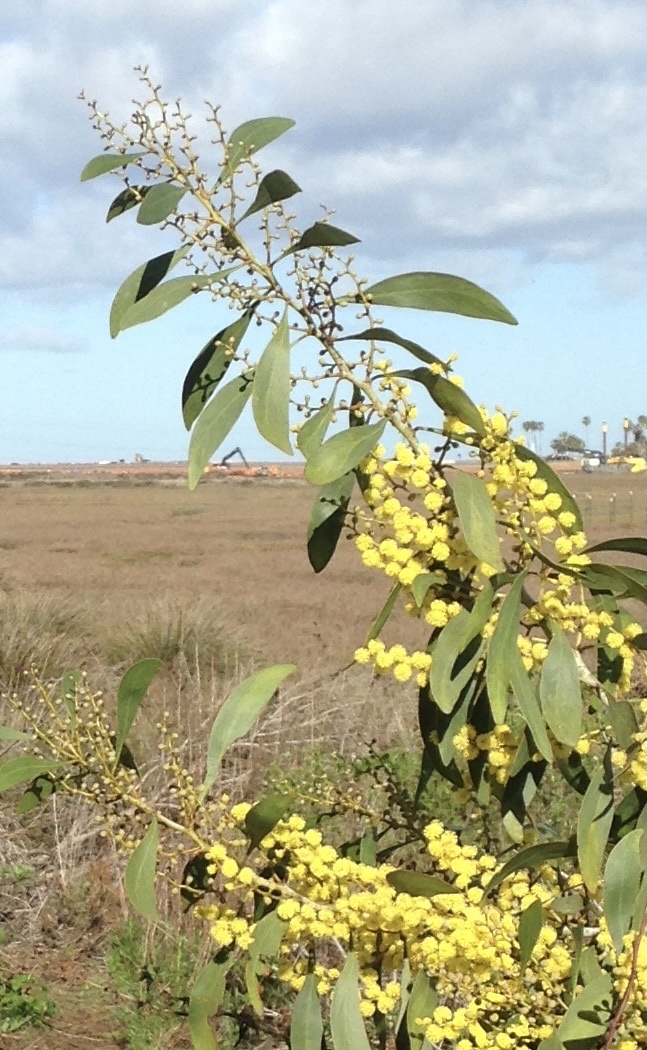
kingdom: Plantae
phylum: Tracheophyta
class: Magnoliopsida
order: Fabales
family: Fabaceae
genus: Acacia
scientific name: Acacia pycnantha
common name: Golden wattle
